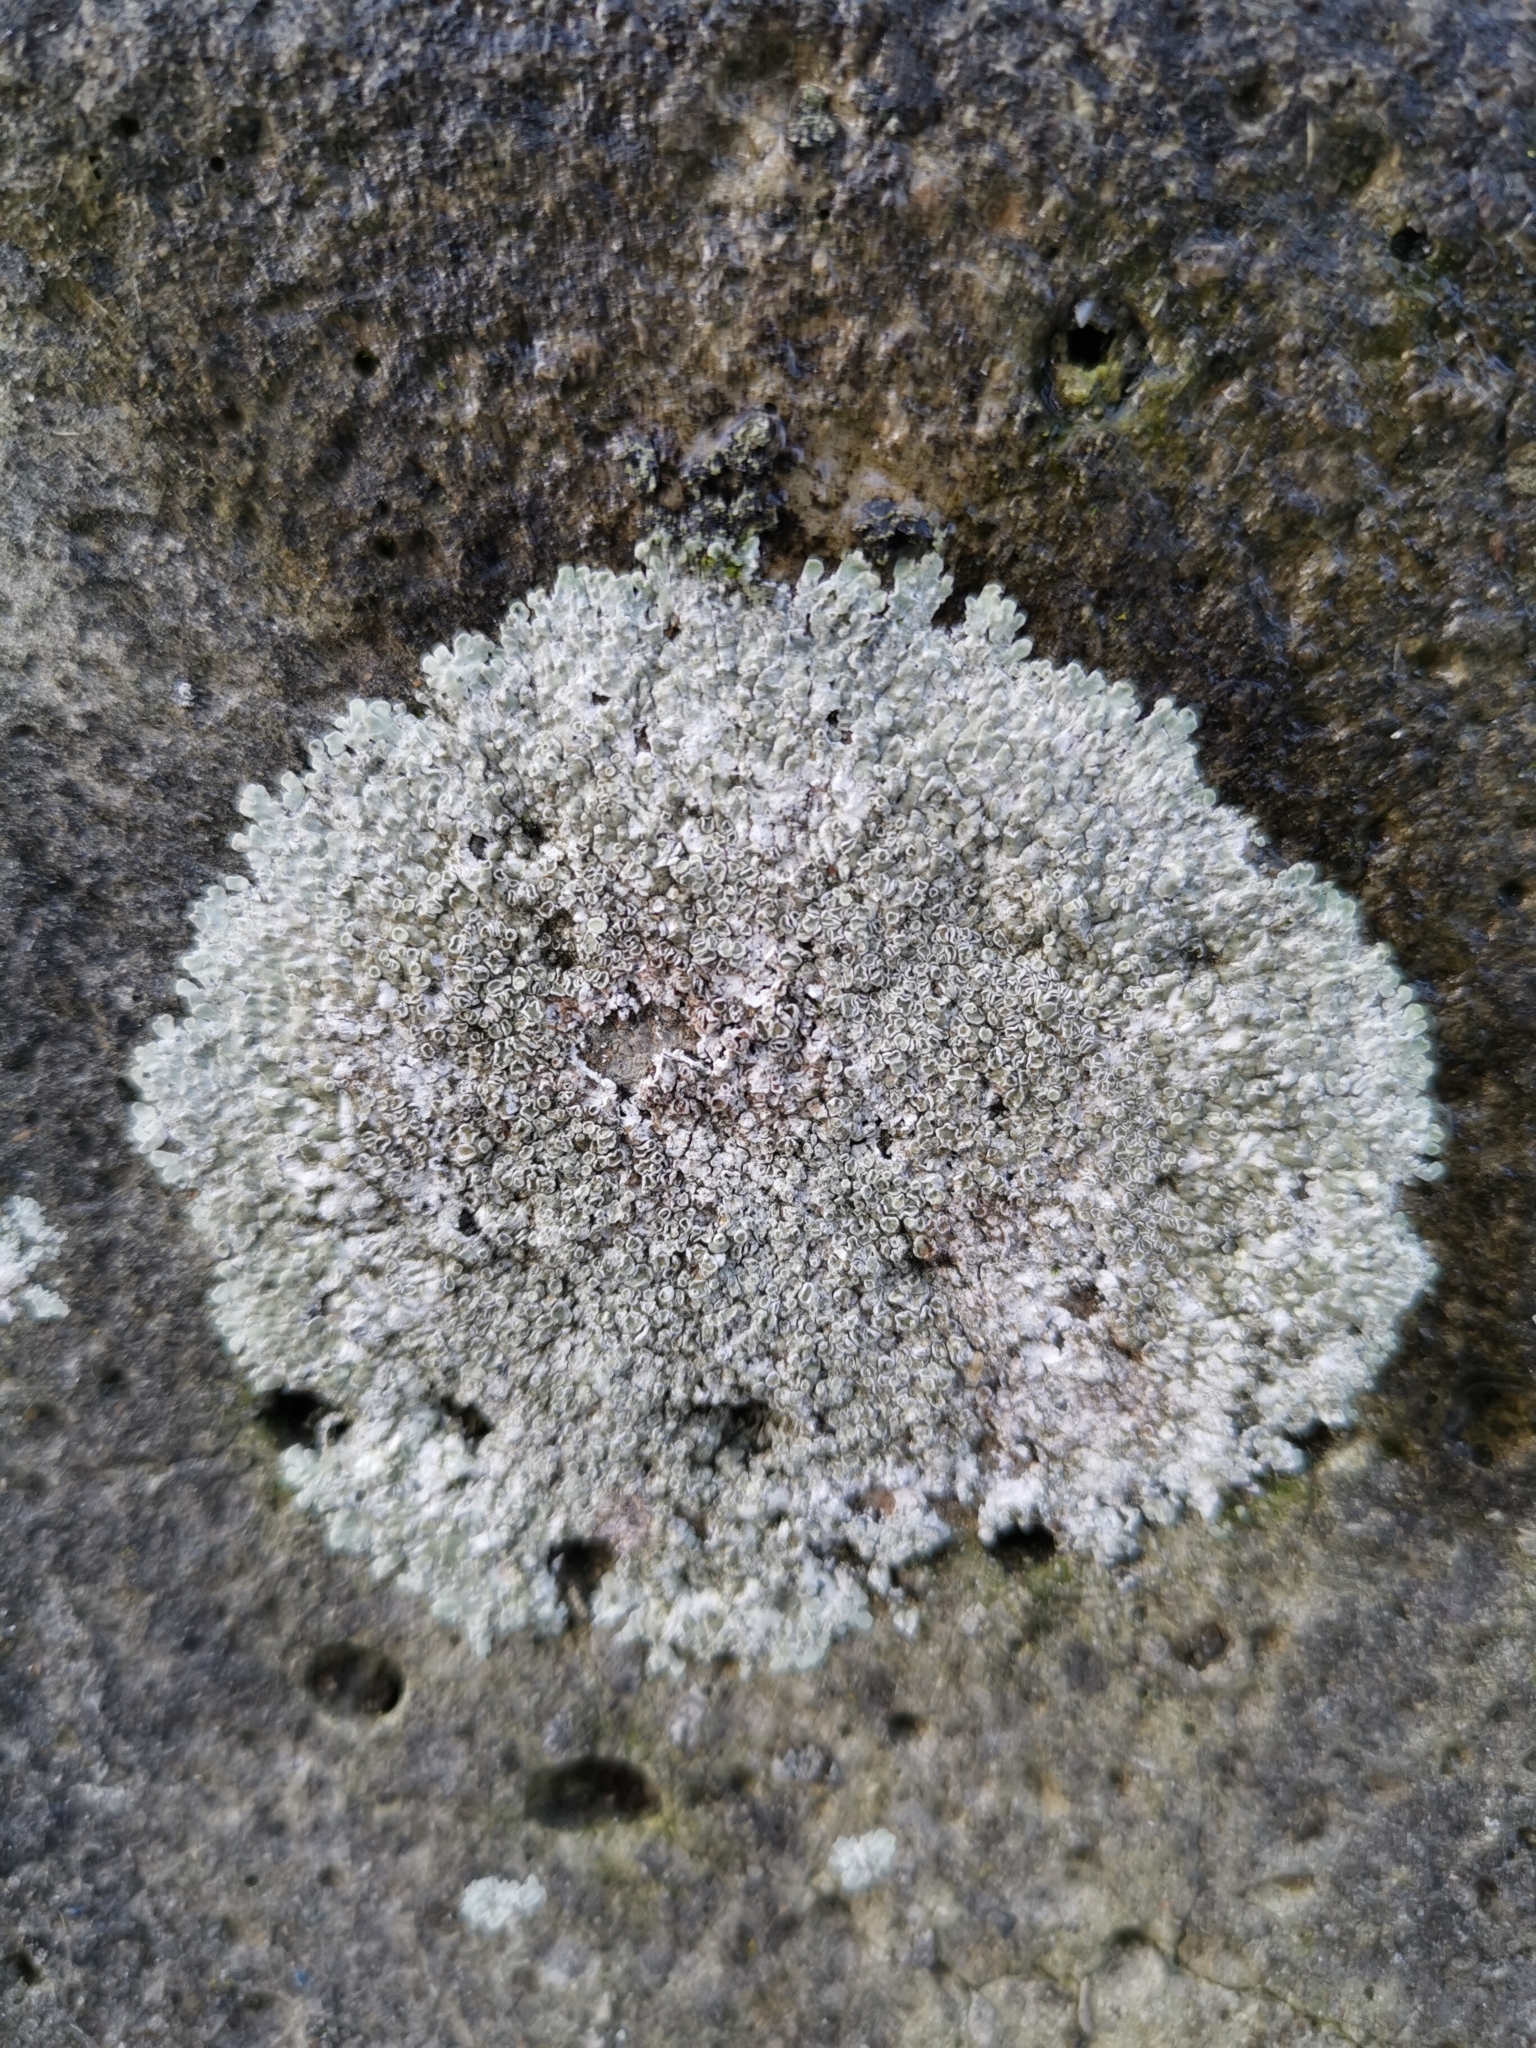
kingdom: Fungi
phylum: Ascomycota
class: Lecanoromycetes
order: Lecanorales
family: Lecanoraceae
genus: Protoparmeliopsis
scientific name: Protoparmeliopsis muralis
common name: Stonewall rim lichen
